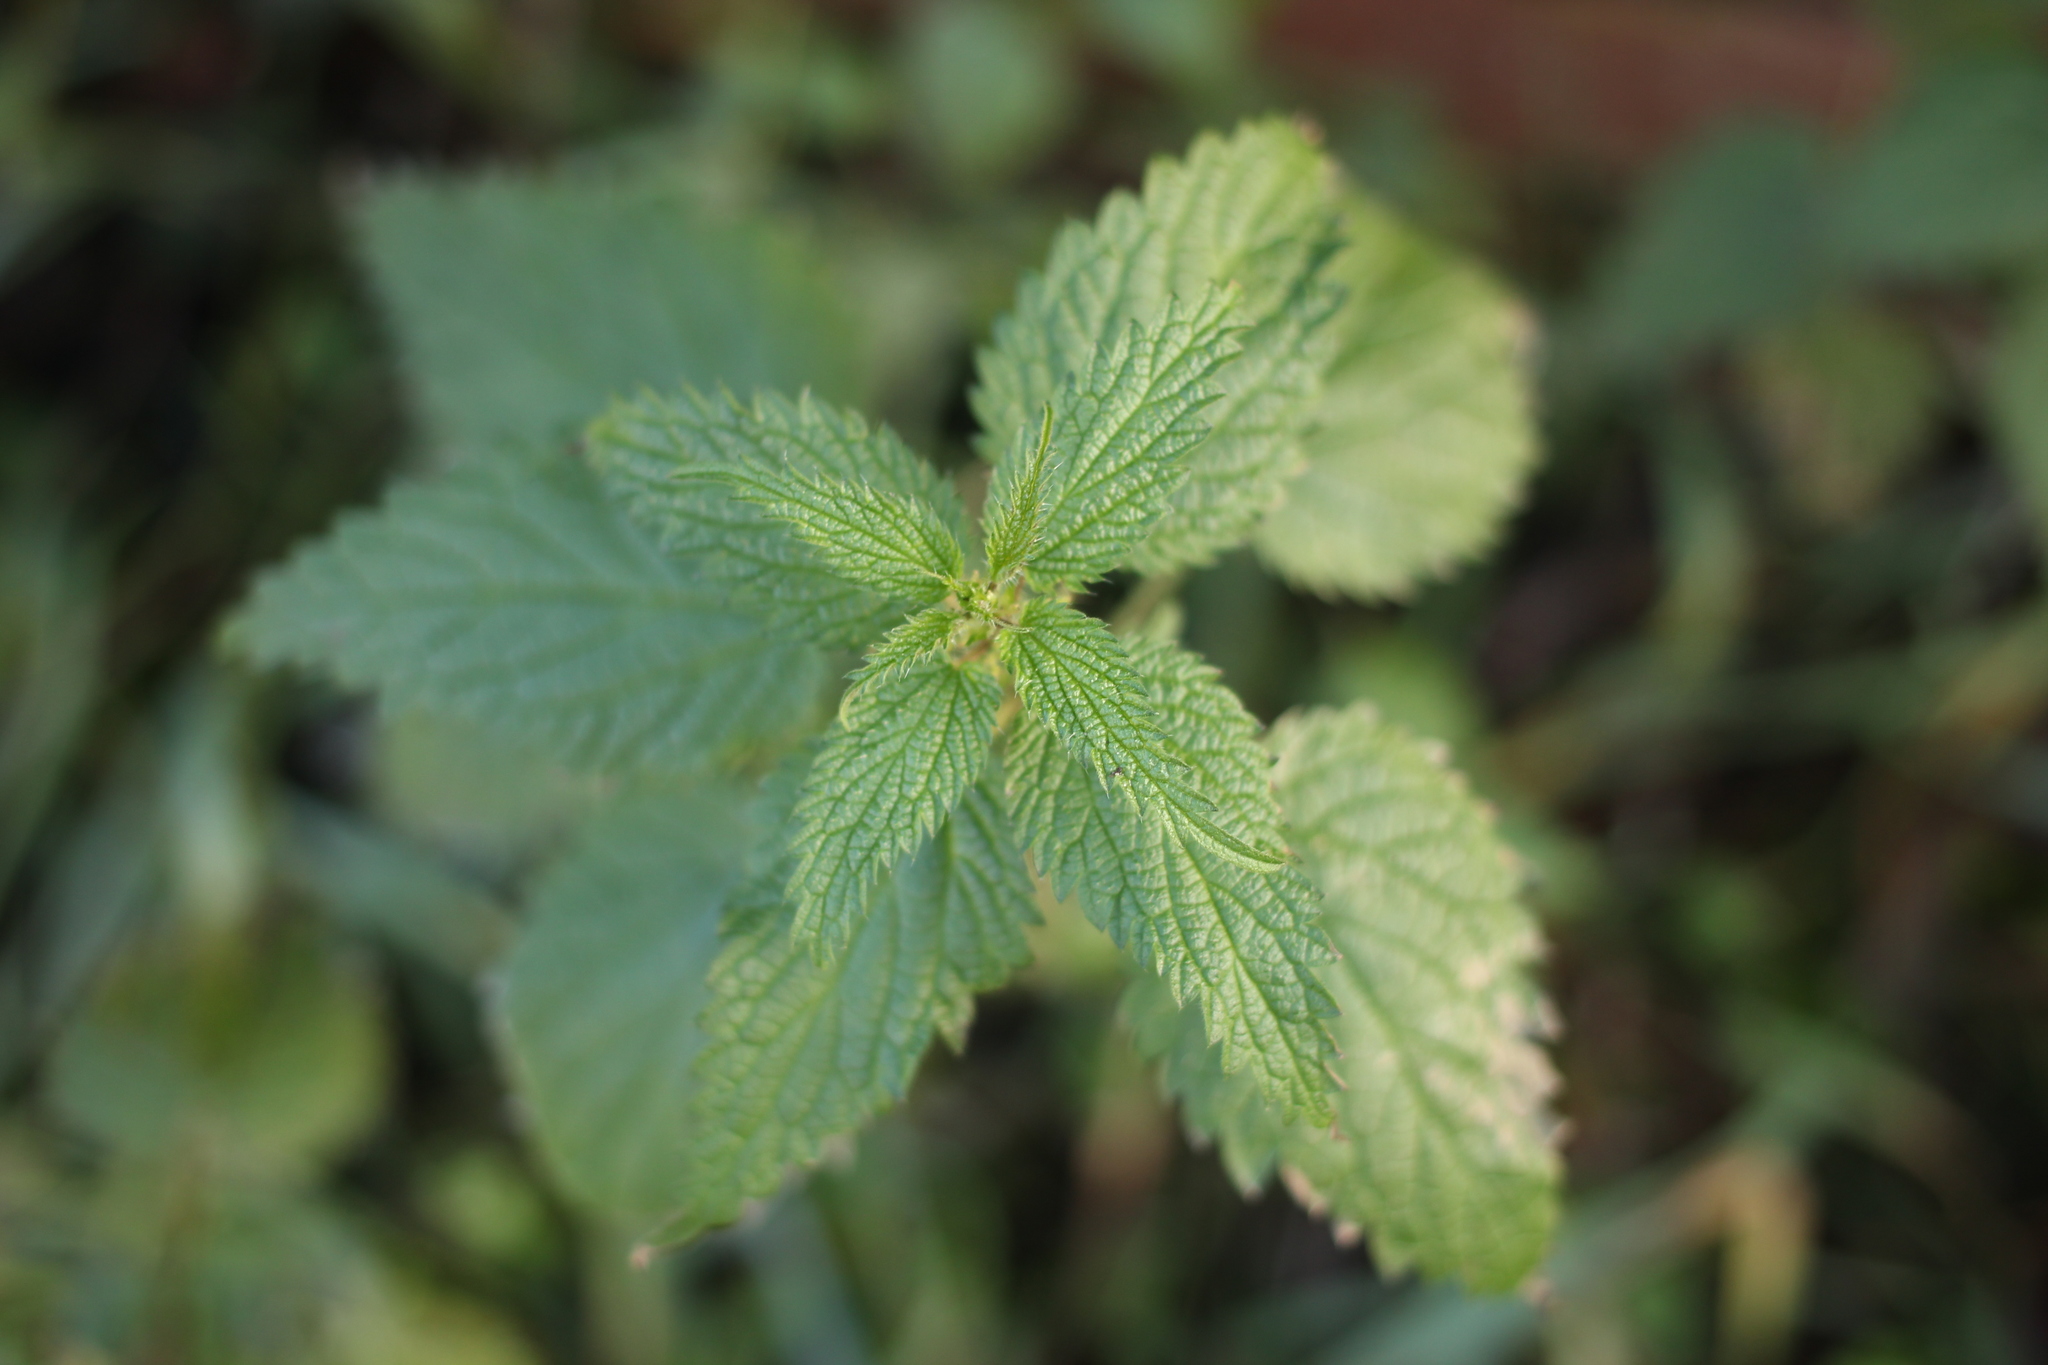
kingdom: Plantae
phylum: Tracheophyta
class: Magnoliopsida
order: Rosales
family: Urticaceae
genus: Urtica
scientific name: Urtica dioica
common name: Common nettle
